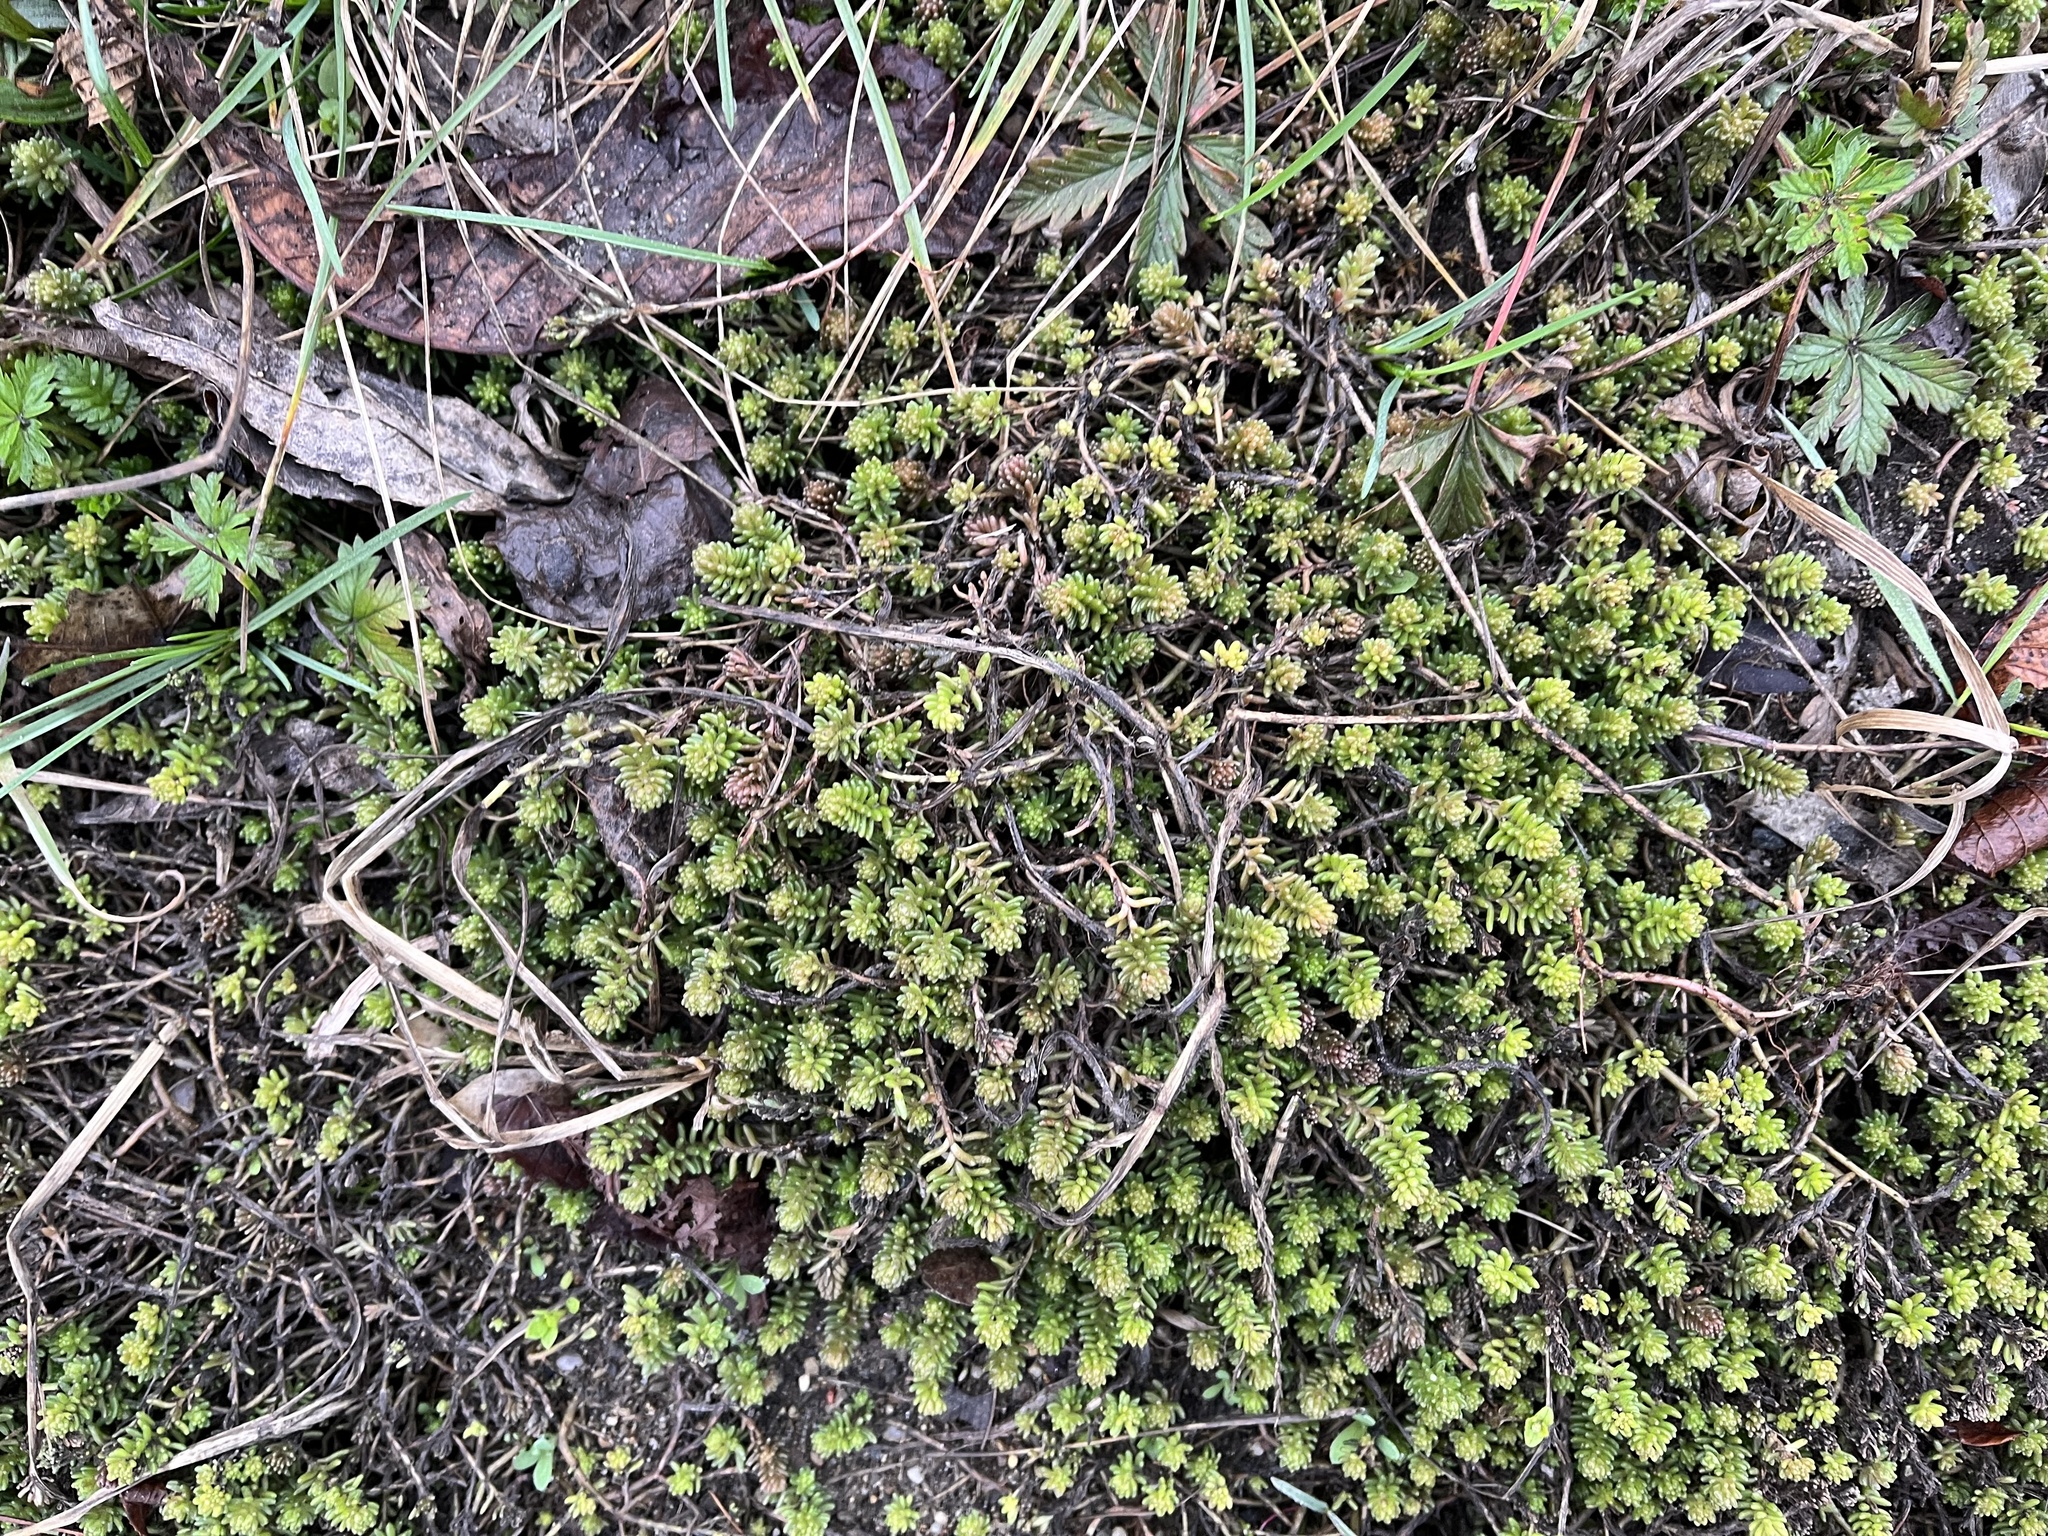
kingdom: Plantae
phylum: Tracheophyta
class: Magnoliopsida
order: Saxifragales
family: Crassulaceae
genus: Sedum
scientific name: Sedum sexangulare
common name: Tasteless stonecrop
